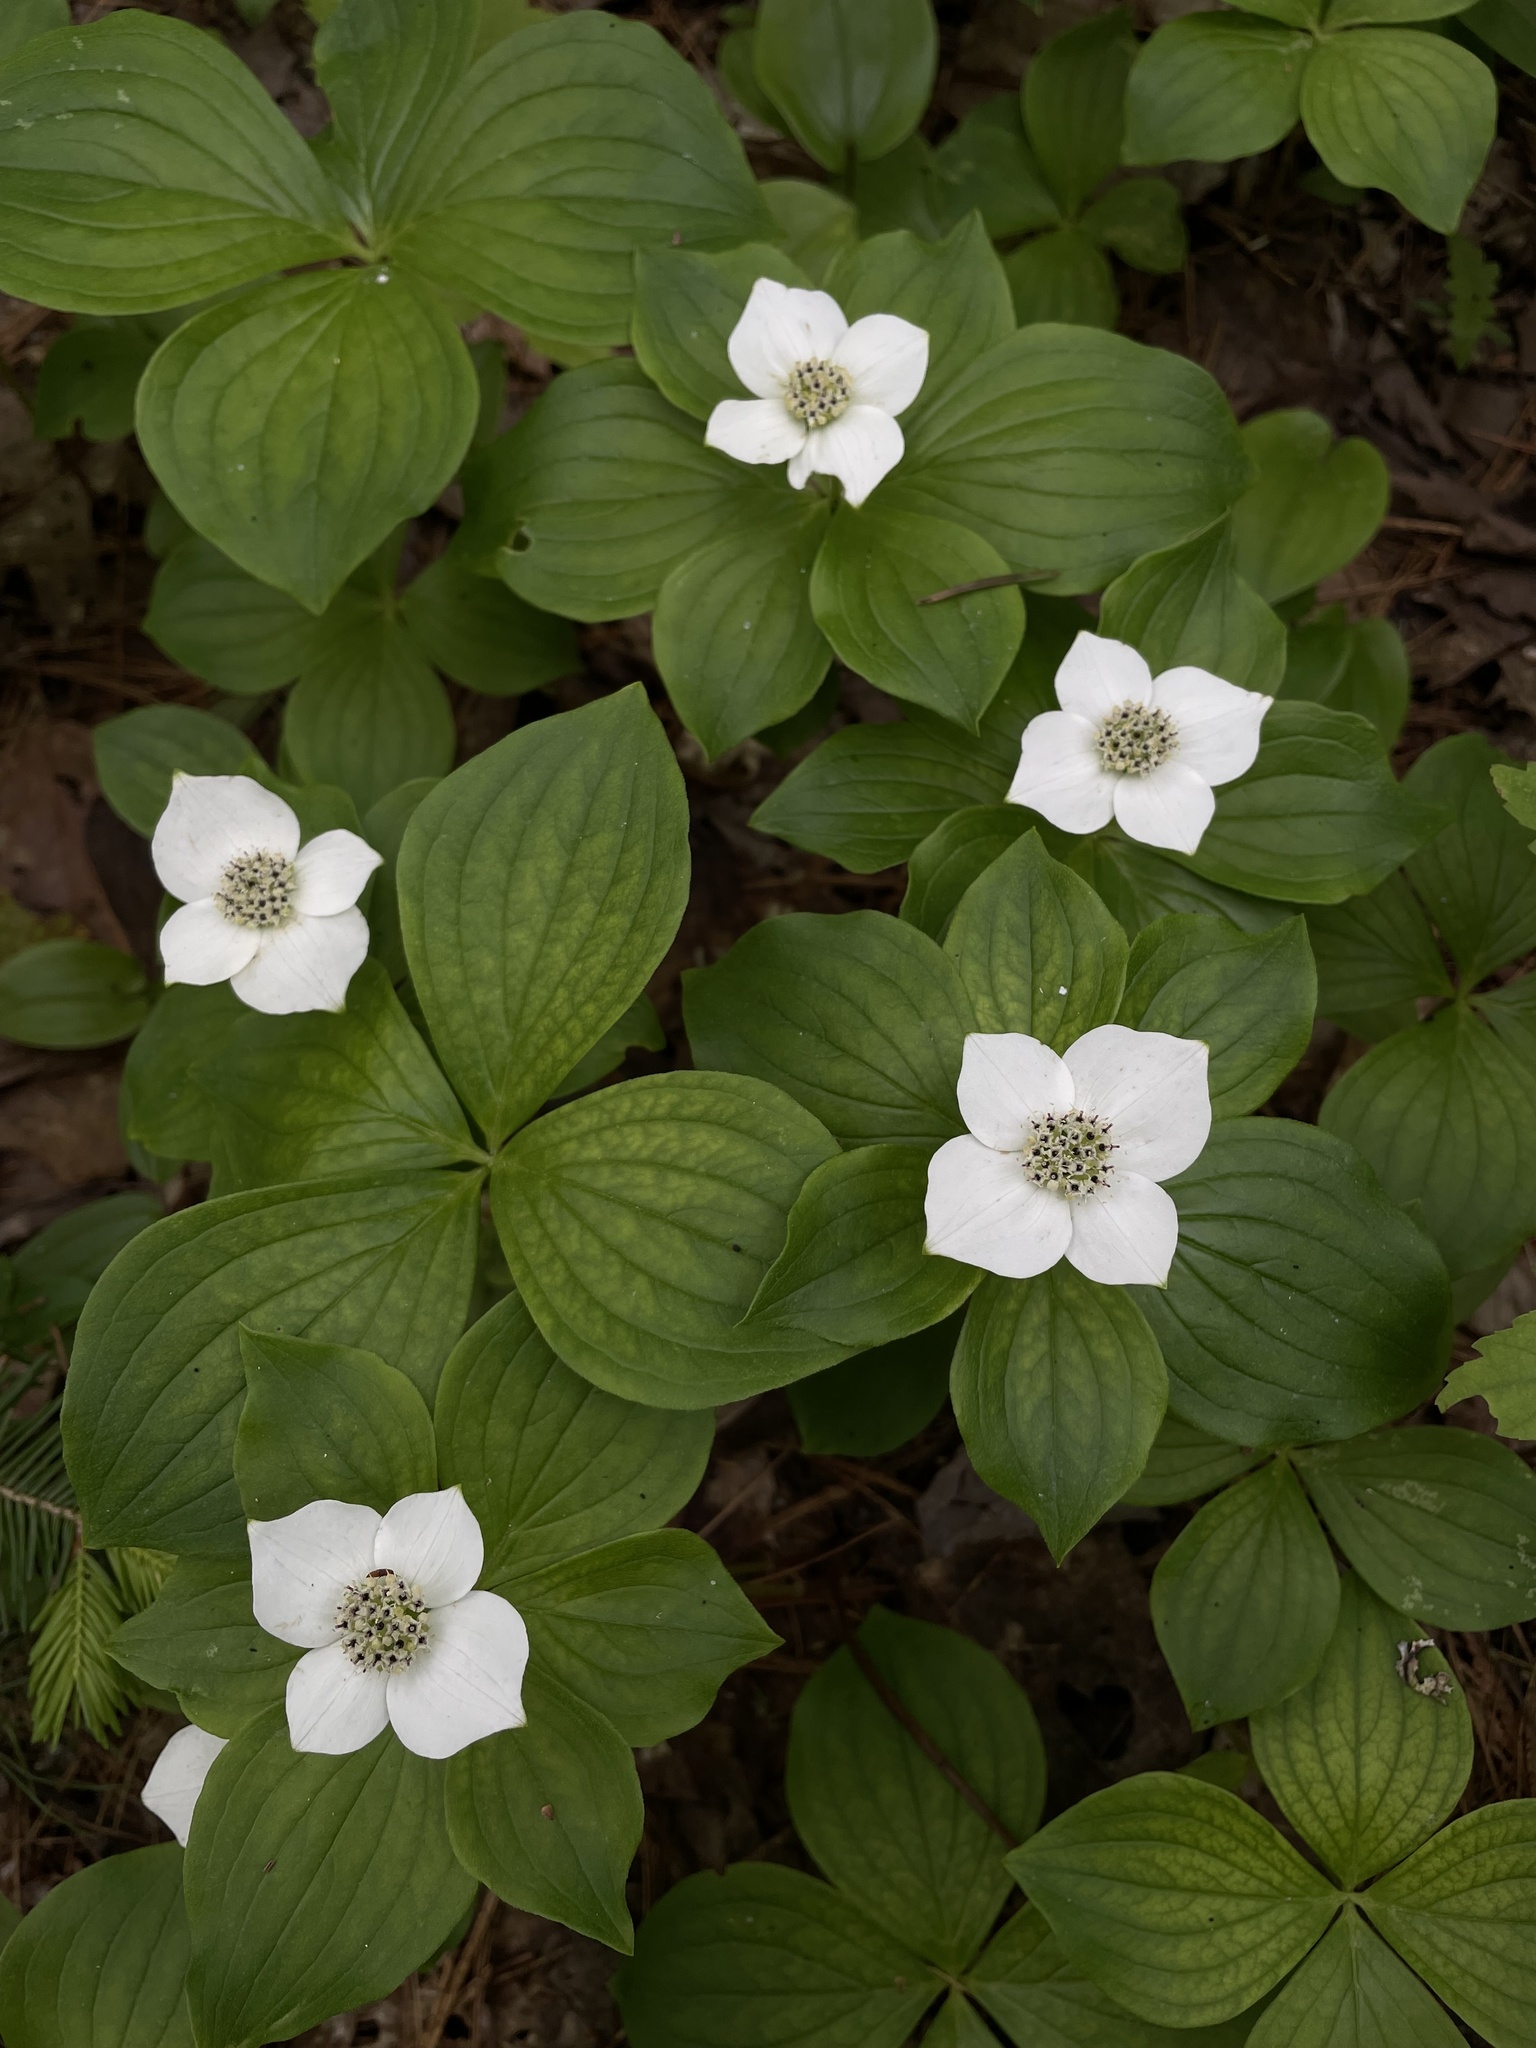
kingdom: Plantae
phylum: Tracheophyta
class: Magnoliopsida
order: Cornales
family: Cornaceae
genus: Cornus
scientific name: Cornus canadensis
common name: Creeping dogwood
